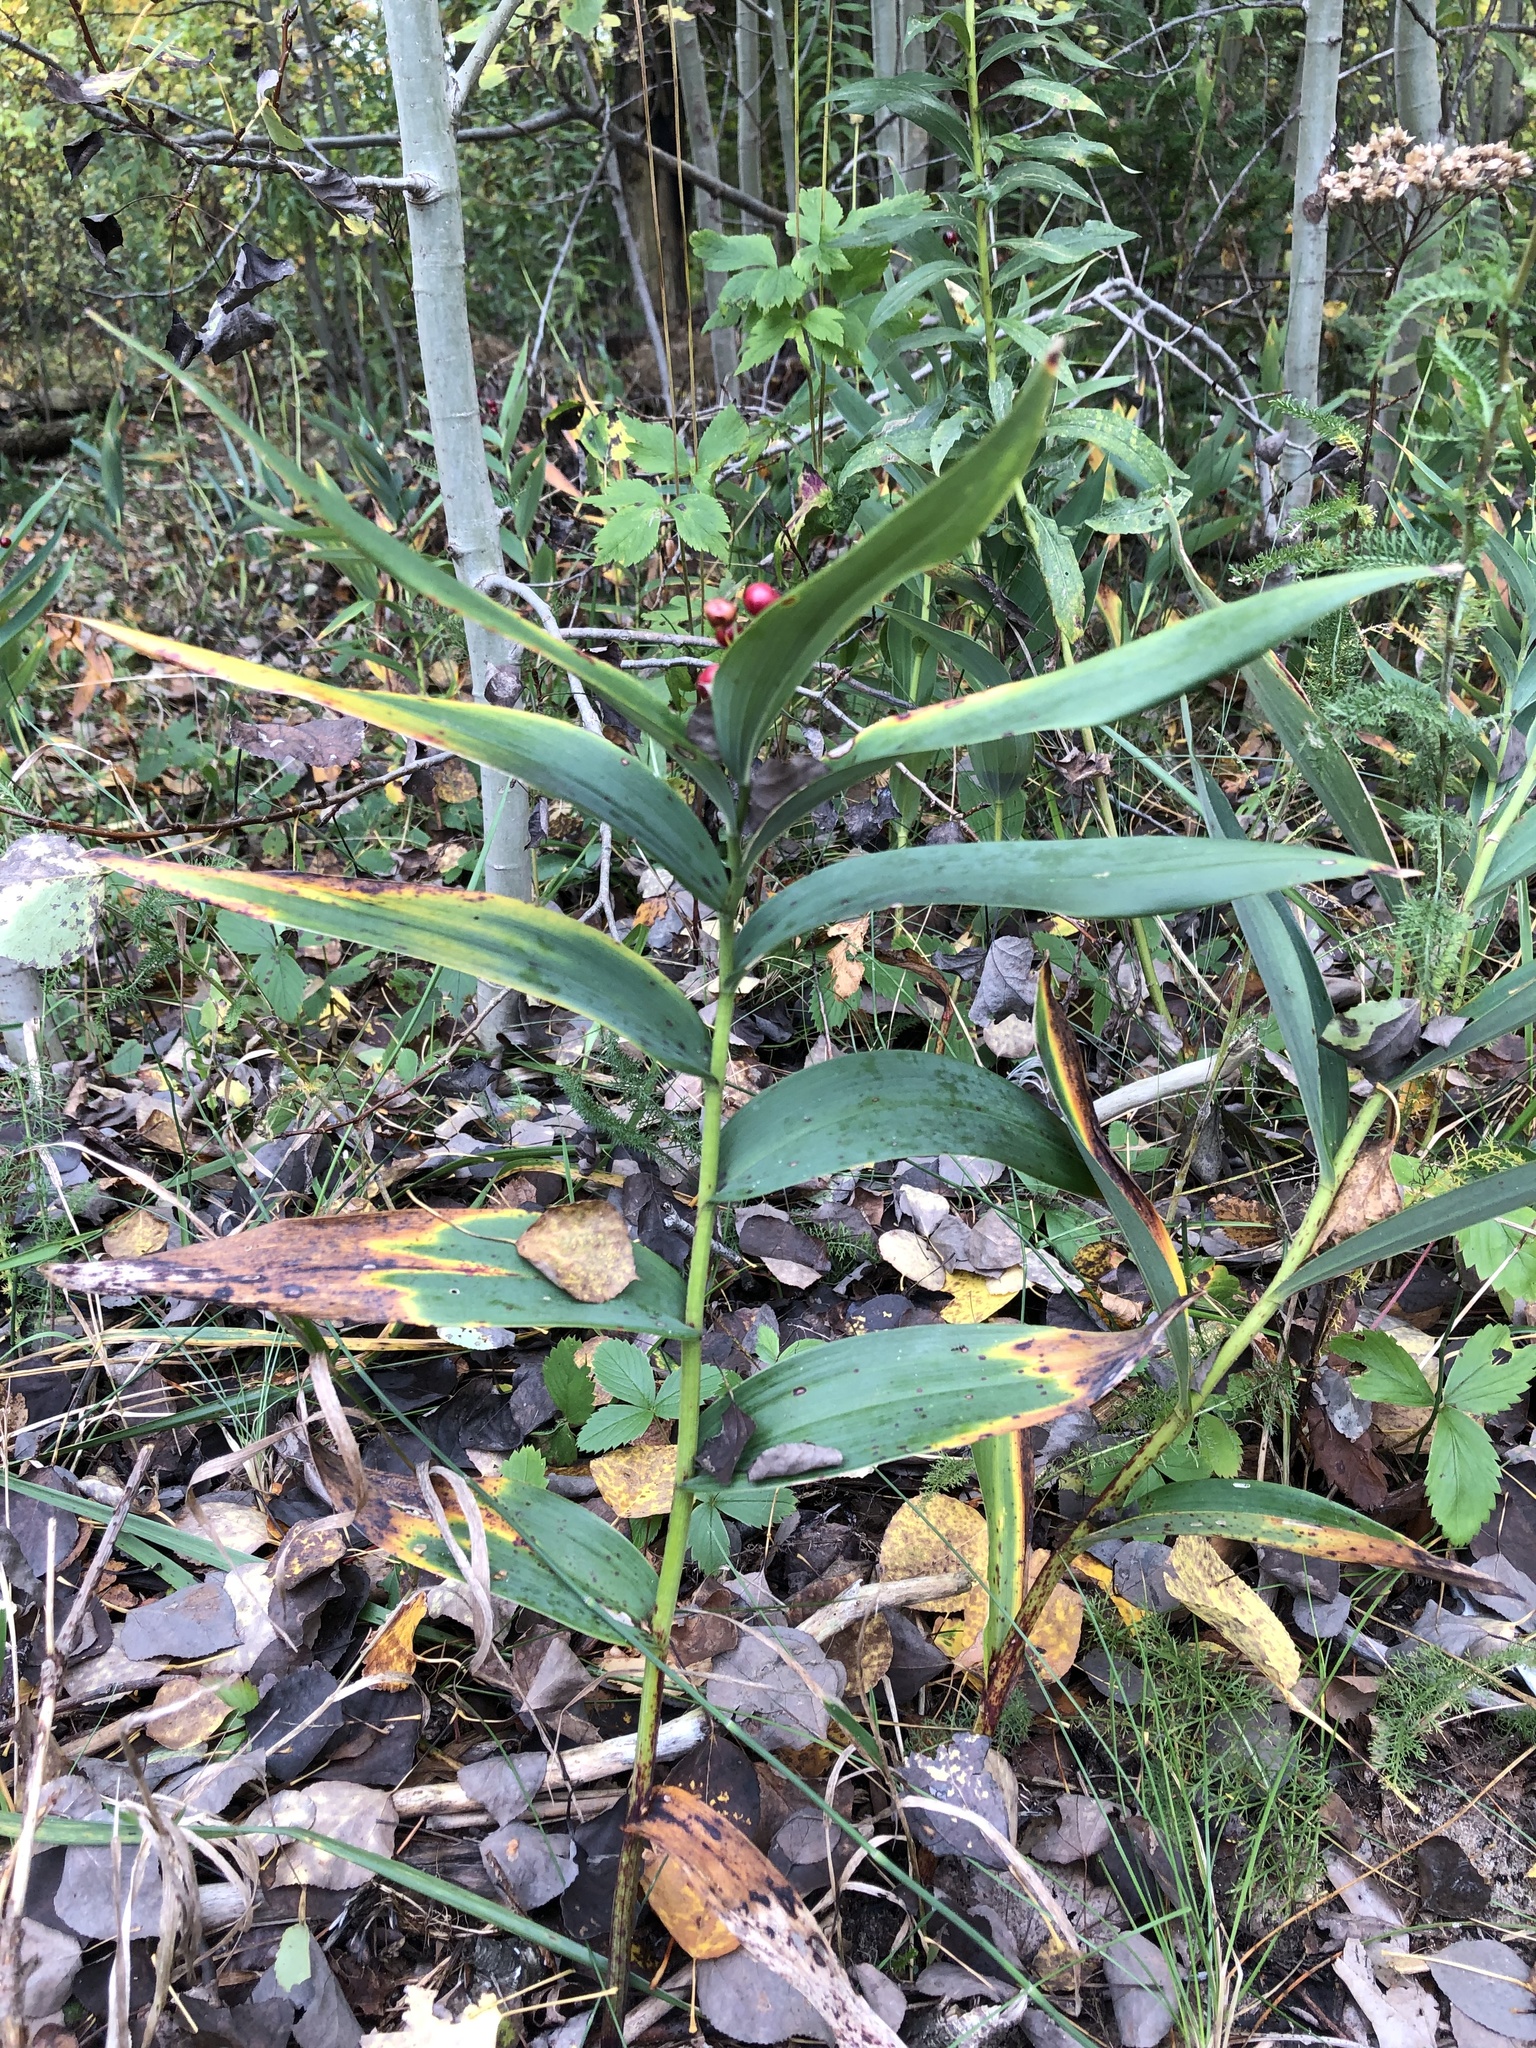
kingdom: Plantae
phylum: Tracheophyta
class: Liliopsida
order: Asparagales
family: Asparagaceae
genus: Maianthemum
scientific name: Maianthemum stellatum
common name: Little false solomon's seal
